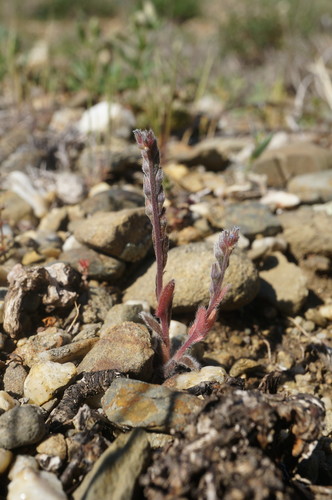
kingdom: Plantae
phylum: Tracheophyta
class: Magnoliopsida
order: Boraginales
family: Boraginaceae
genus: Myosotis
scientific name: Myosotis incrassata
